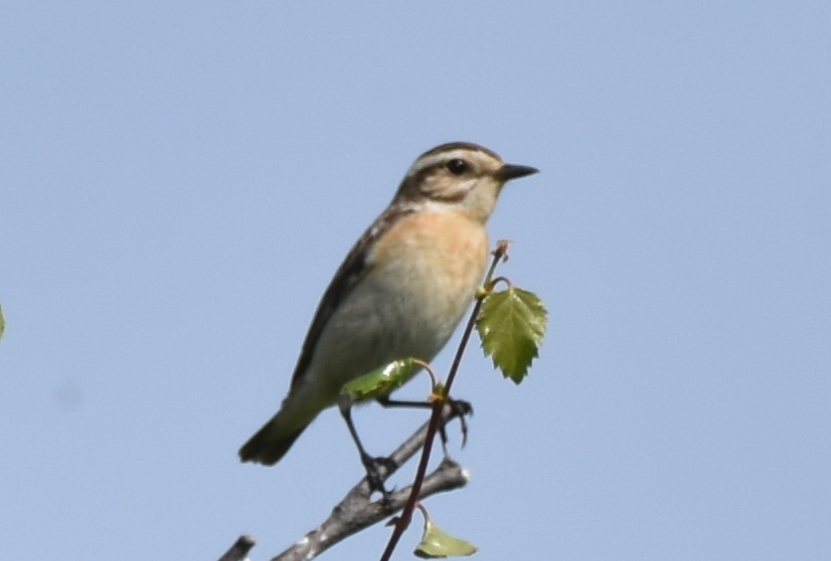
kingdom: Animalia
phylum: Chordata
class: Aves
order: Passeriformes
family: Muscicapidae
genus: Saxicola
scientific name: Saxicola rubetra
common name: Whinchat
